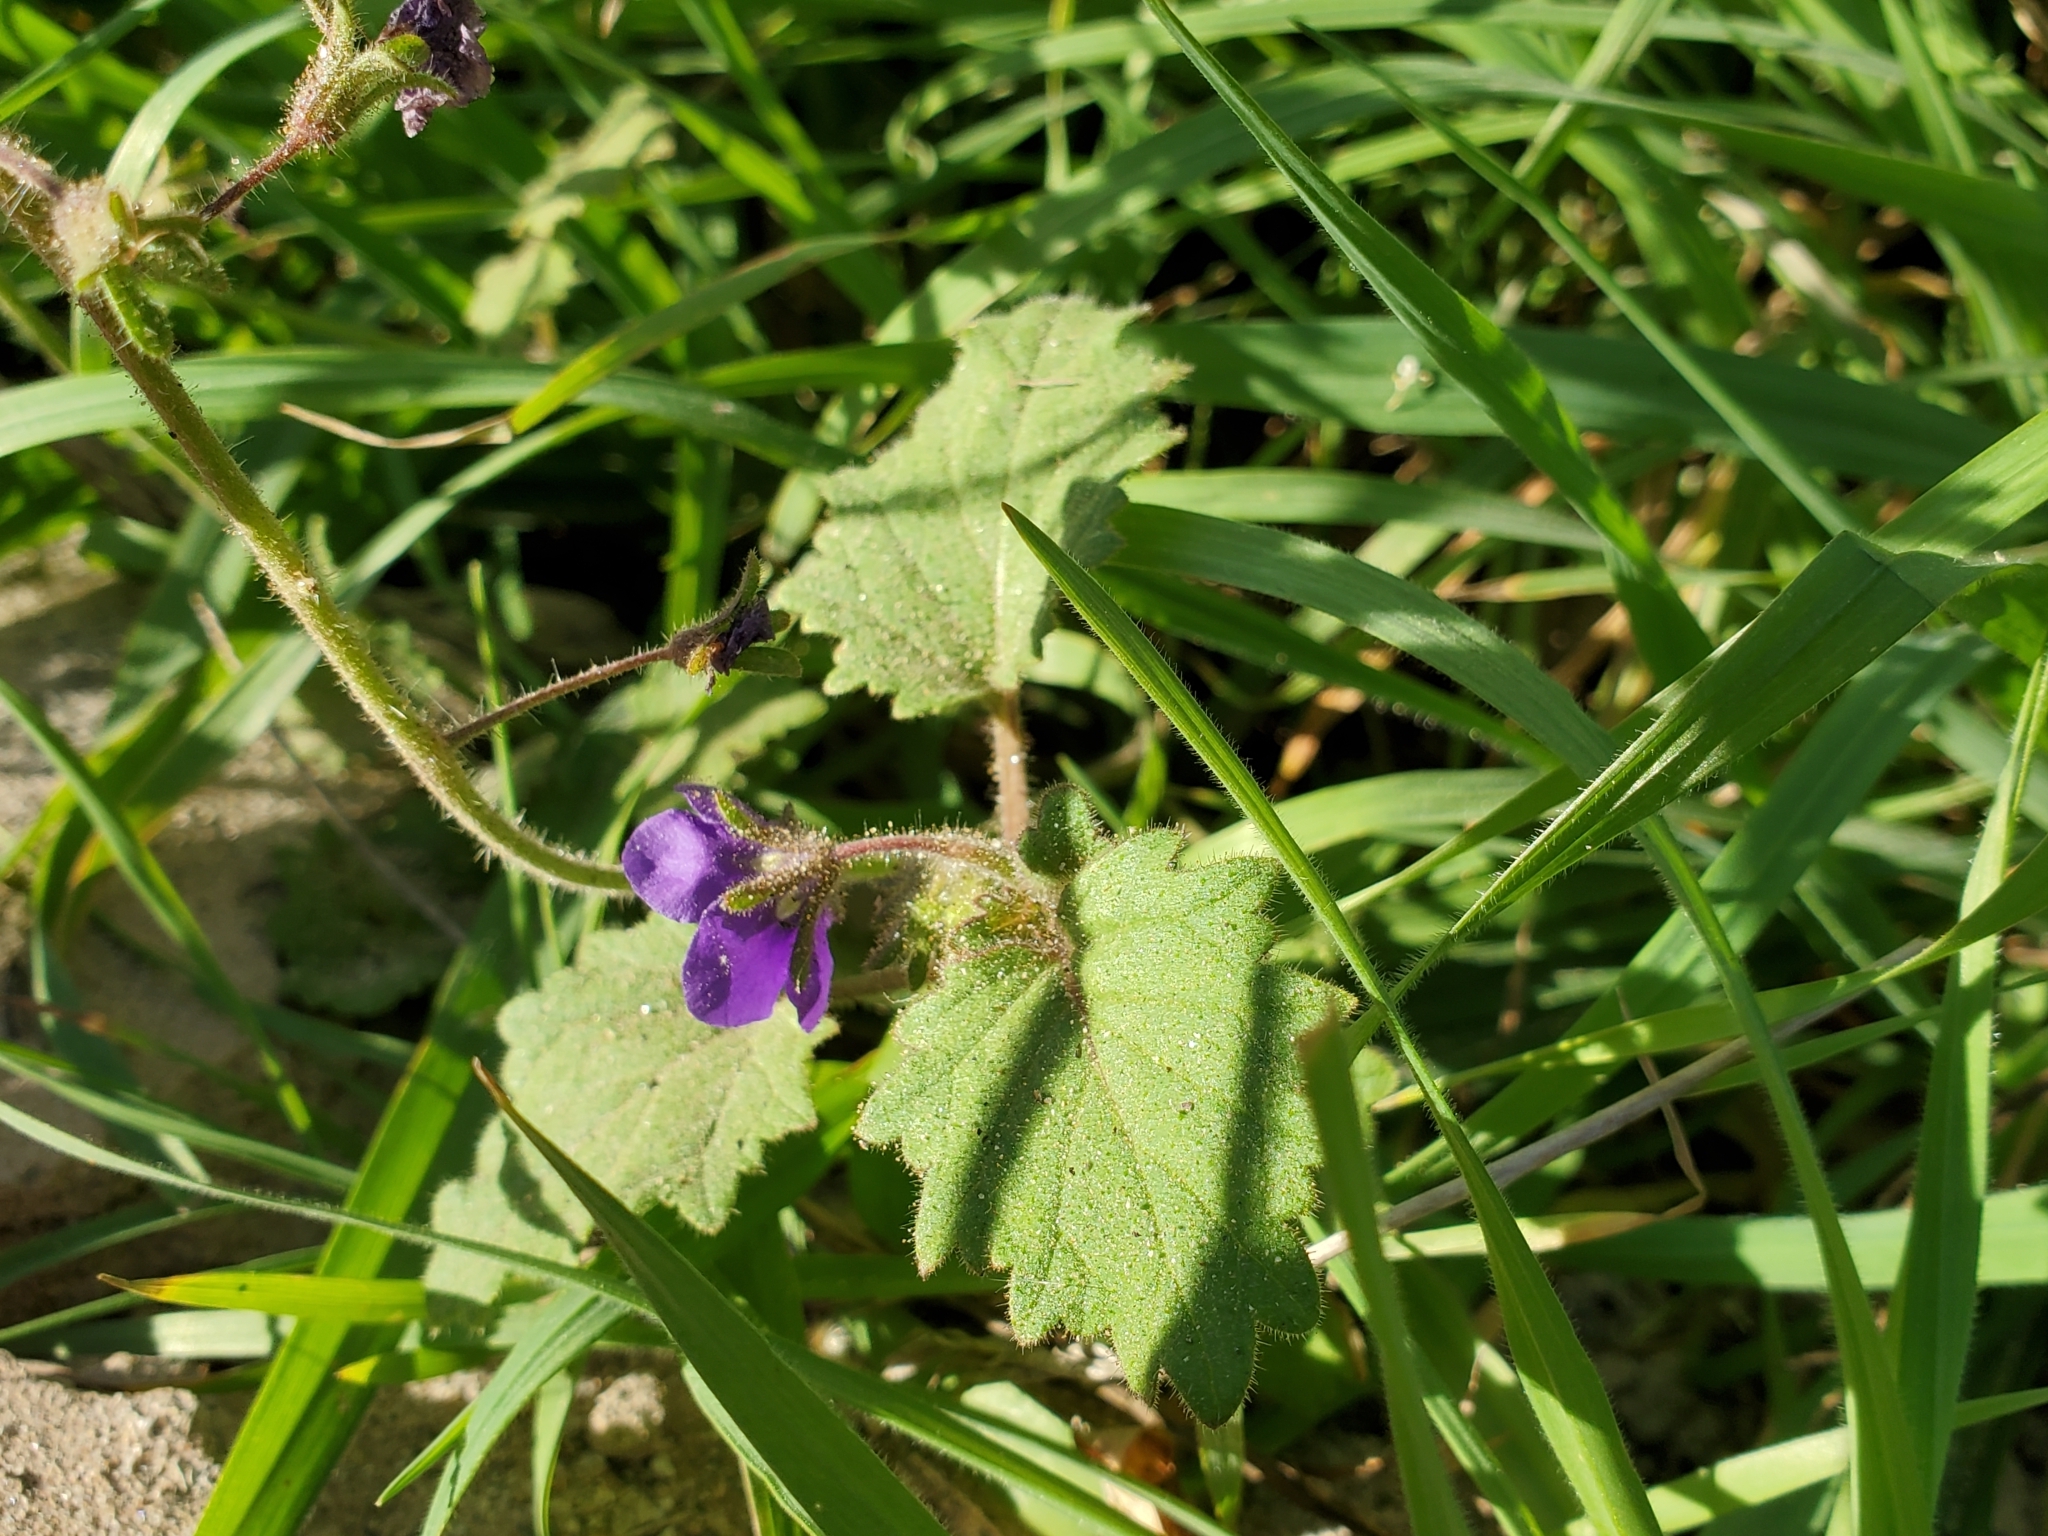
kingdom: Plantae
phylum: Tracheophyta
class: Magnoliopsida
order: Boraginales
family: Hydrophyllaceae
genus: Phacelia
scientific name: Phacelia parryi
